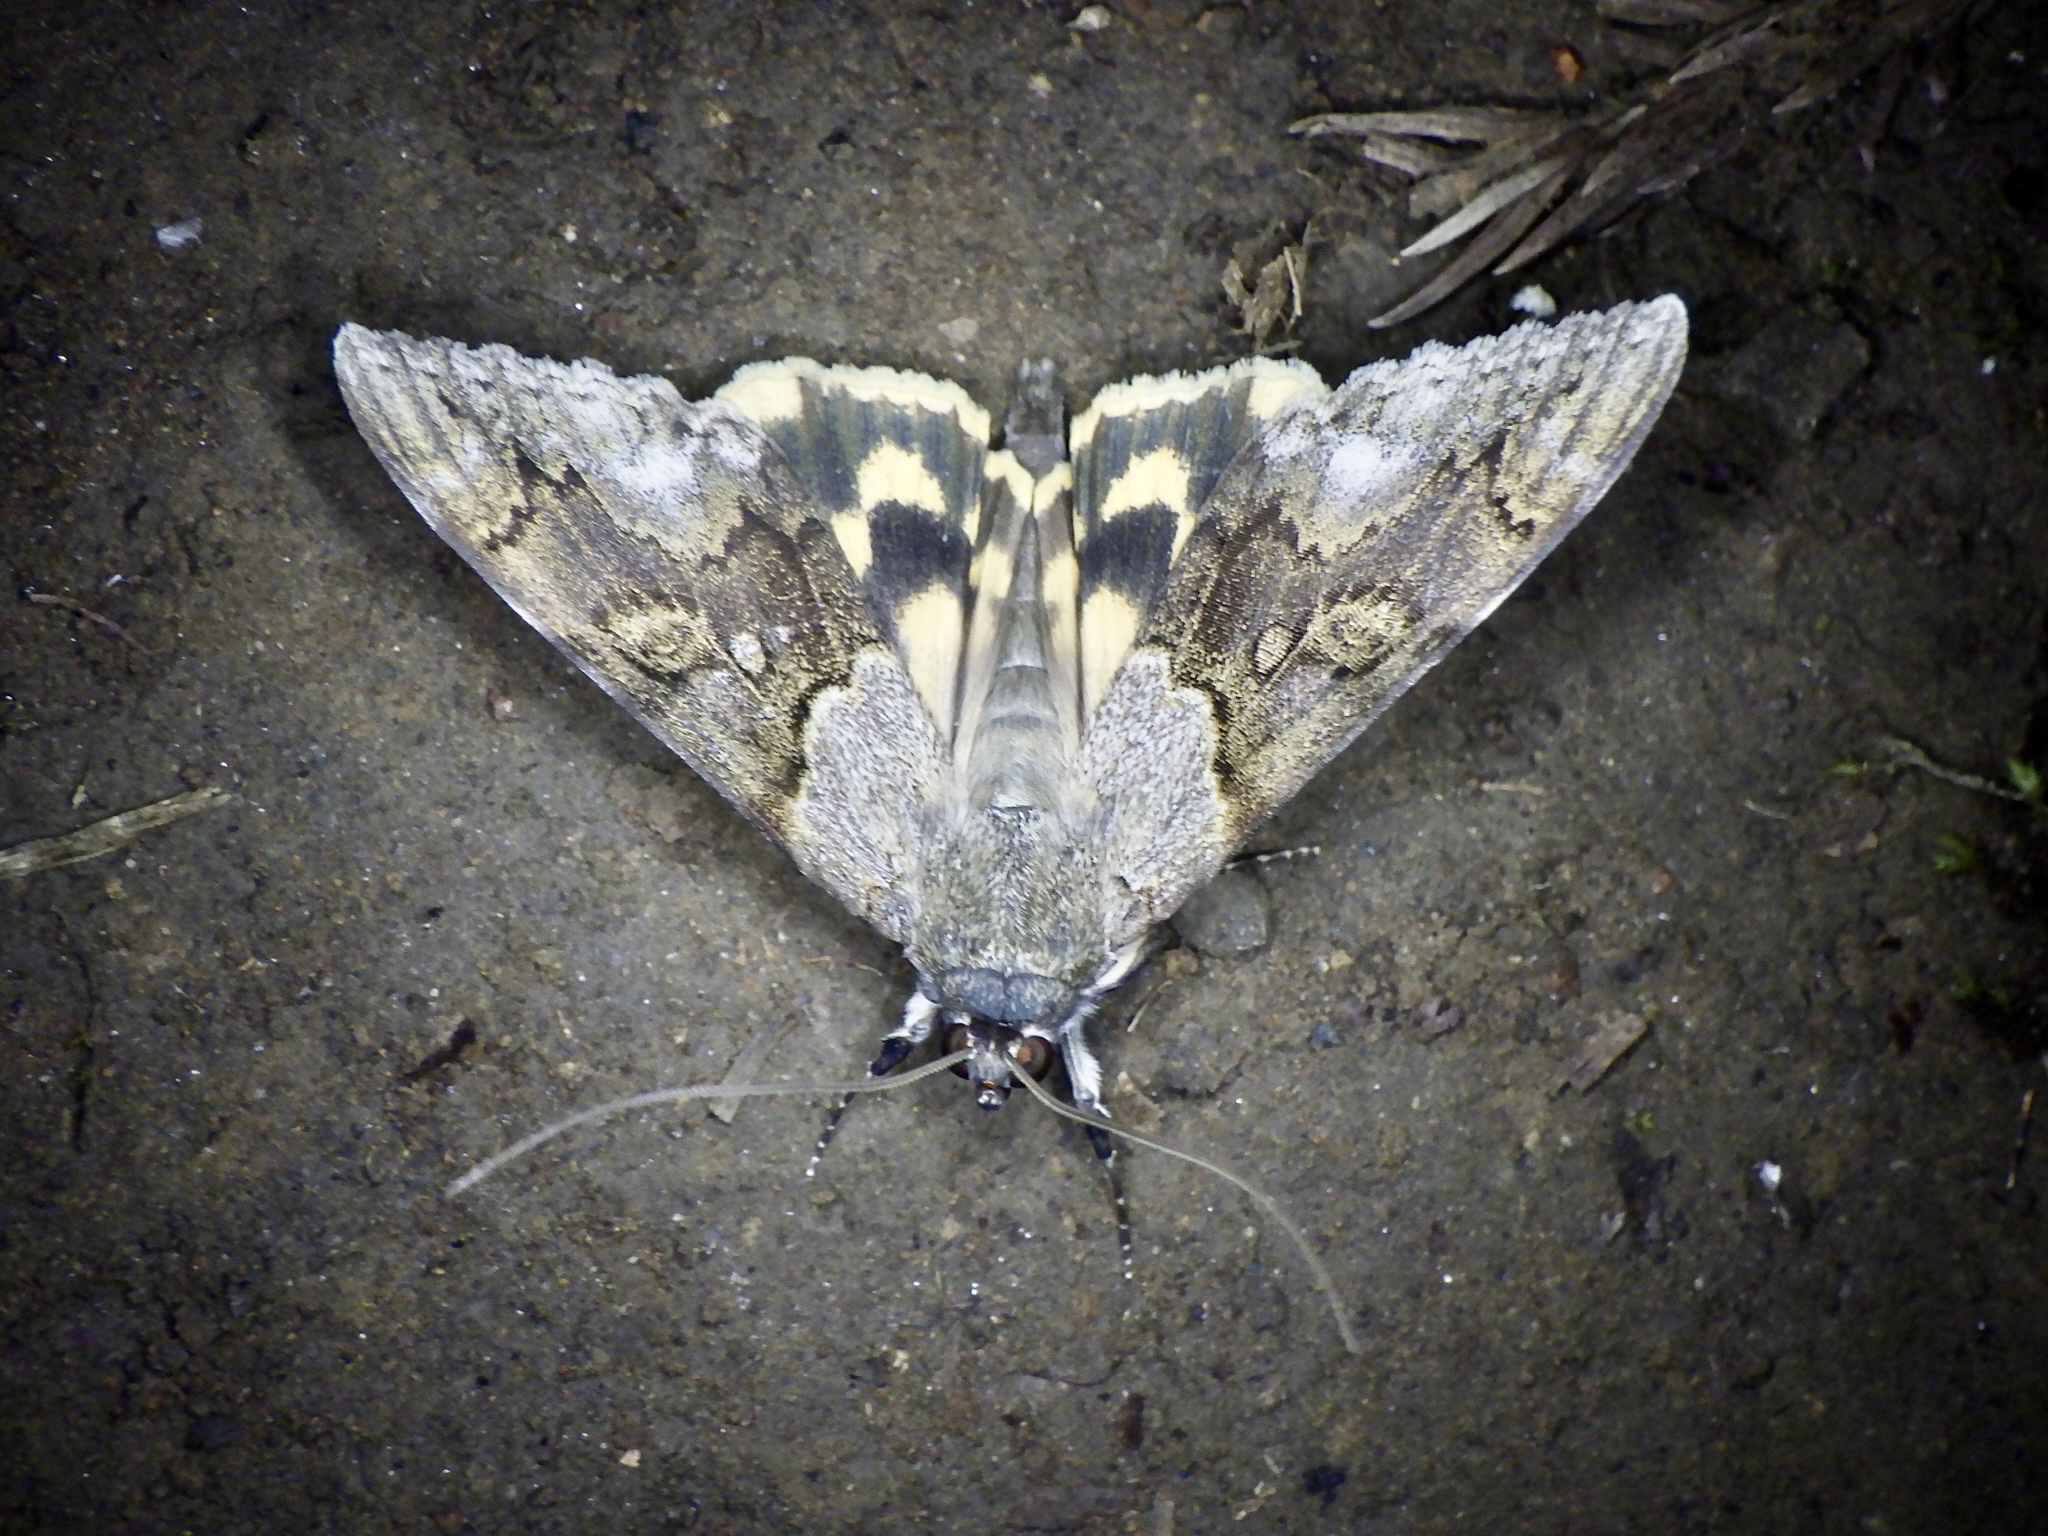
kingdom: Animalia
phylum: Arthropoda
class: Insecta
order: Lepidoptera
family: Erebidae
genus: Catocala
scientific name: Catocala jonasii
